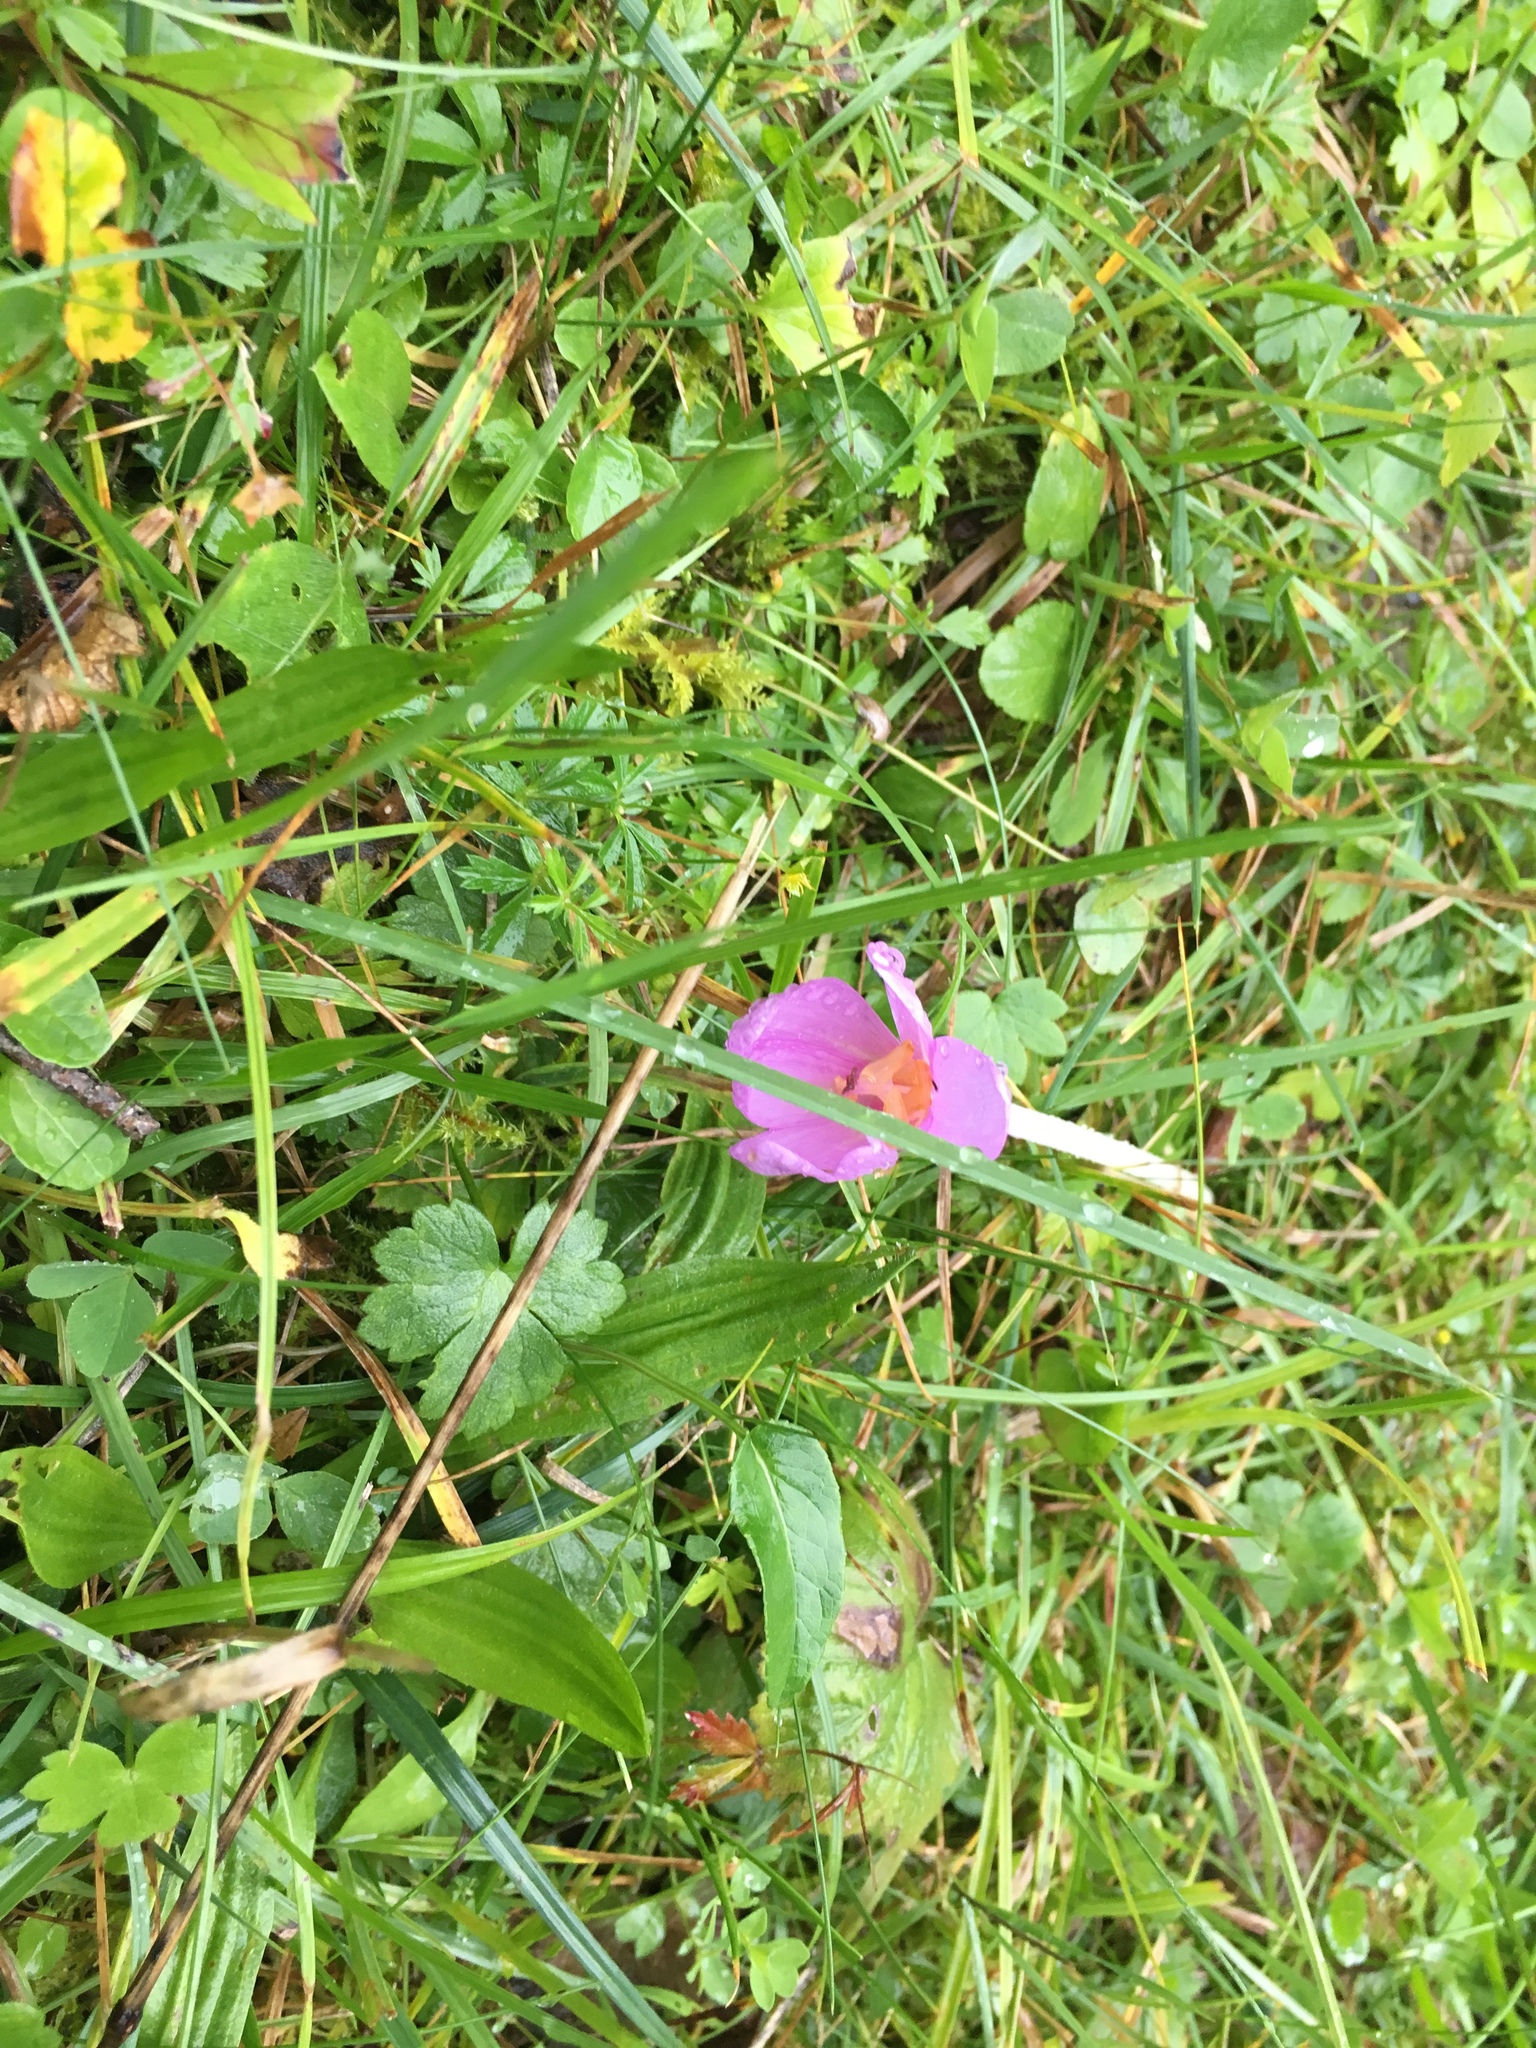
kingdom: Plantae
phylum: Tracheophyta
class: Liliopsida
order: Liliales
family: Colchicaceae
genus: Colchicum
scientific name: Colchicum autumnale
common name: Autumn crocus
